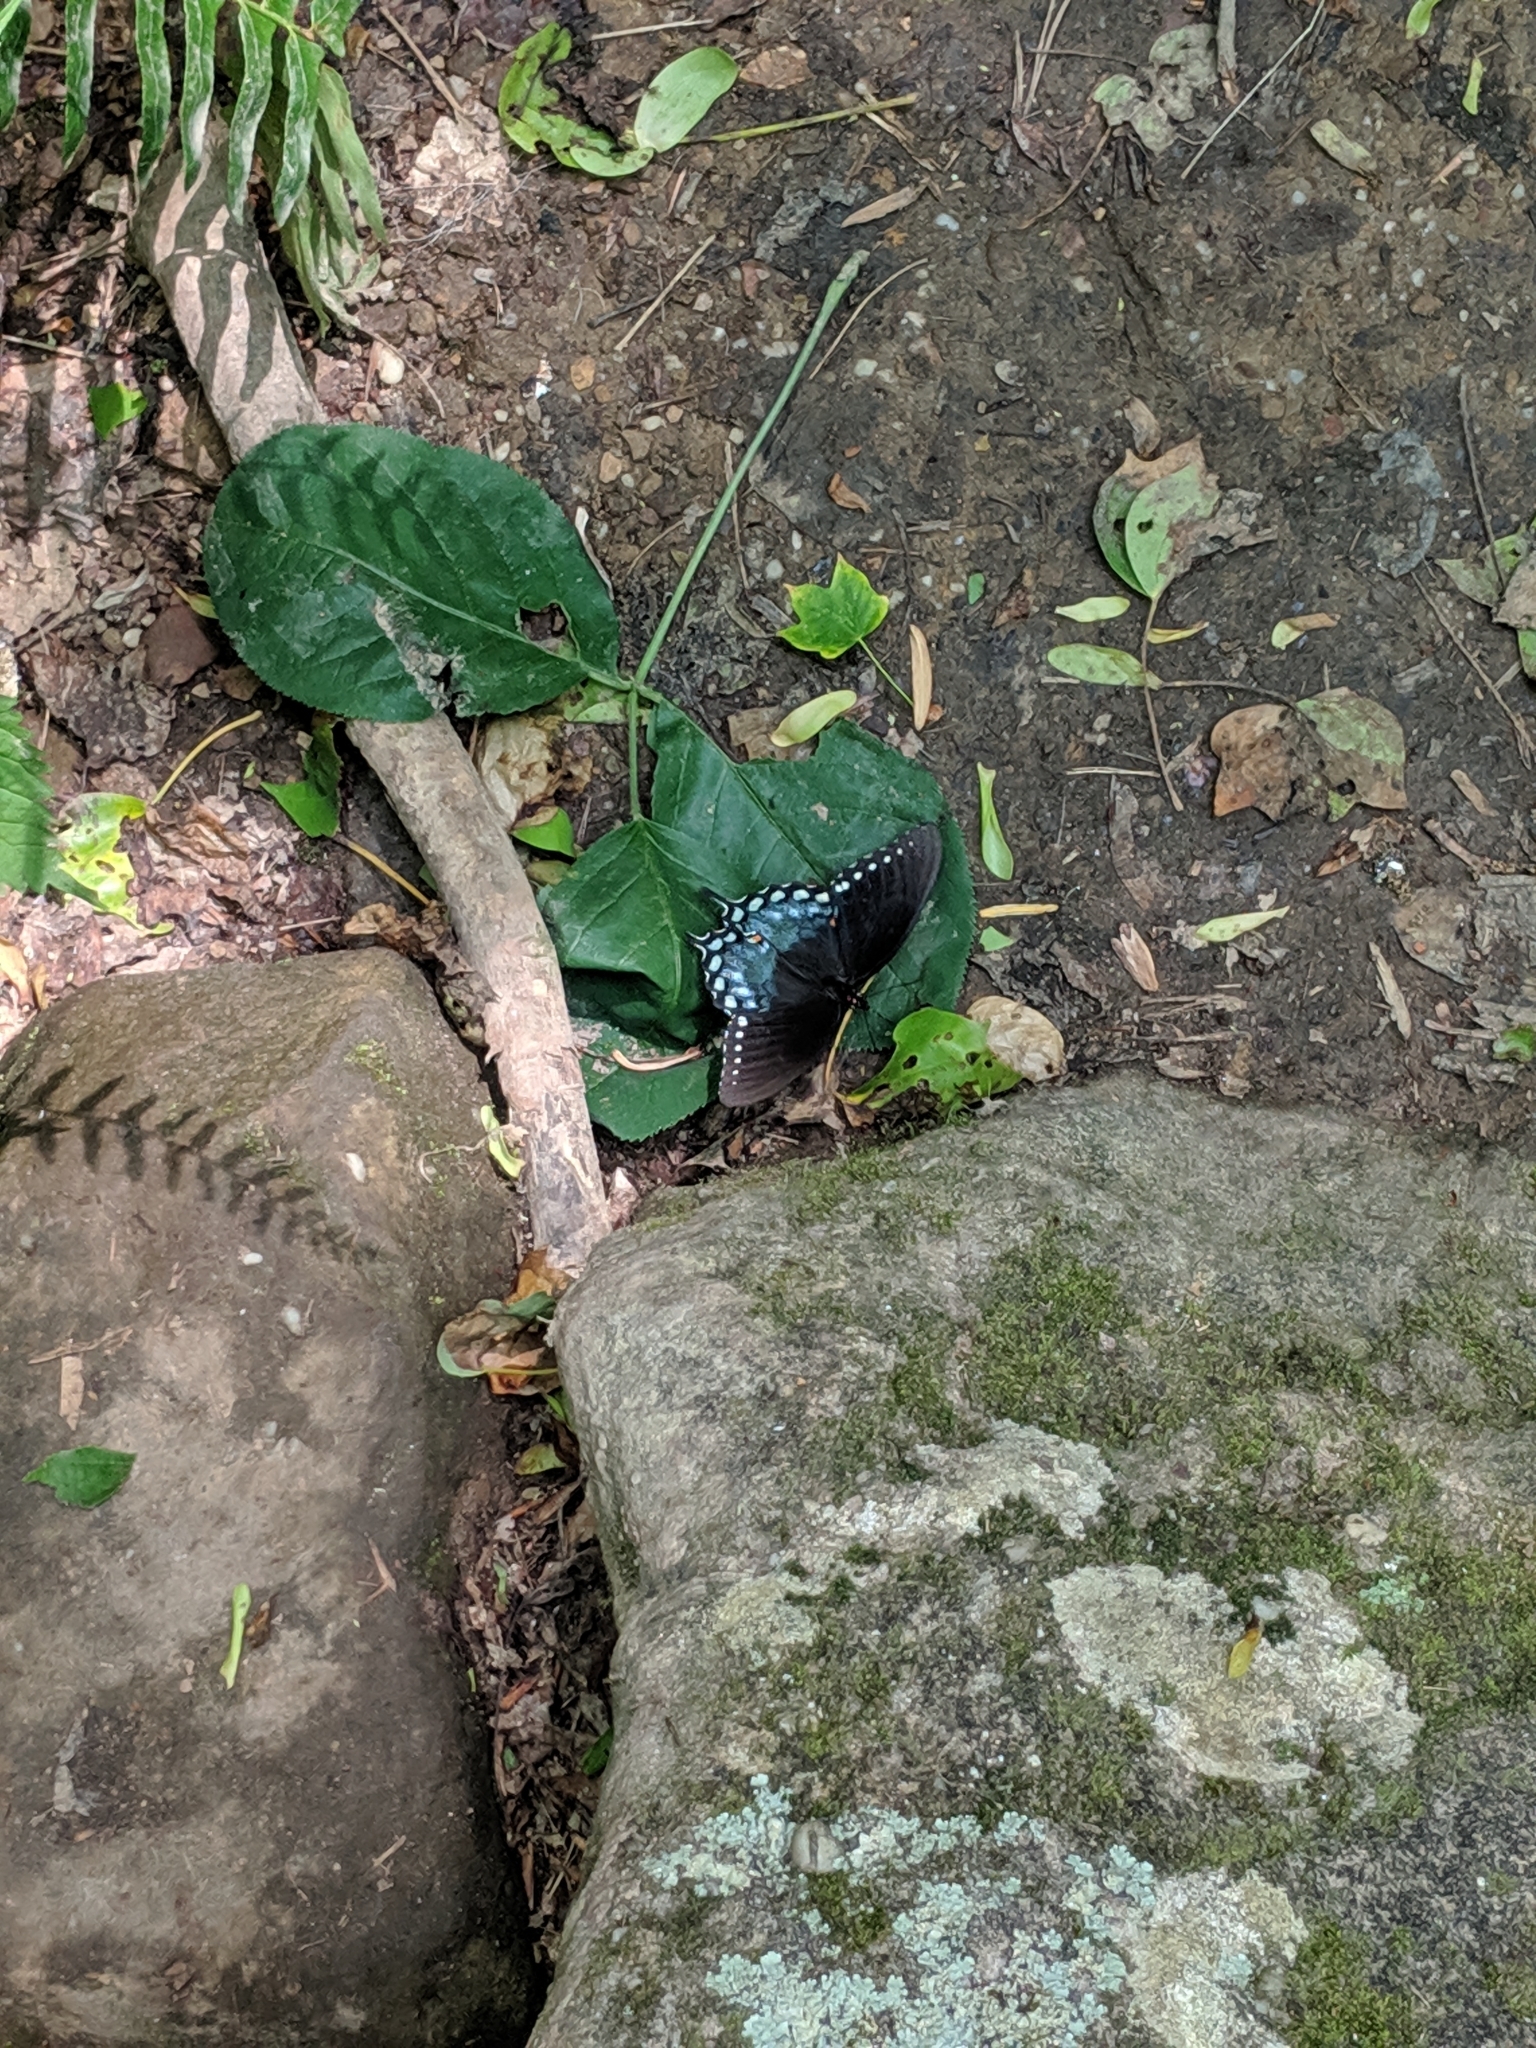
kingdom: Animalia
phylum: Arthropoda
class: Insecta
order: Lepidoptera
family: Papilionidae
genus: Papilio
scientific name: Papilio troilus
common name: Spicebush swallowtail
